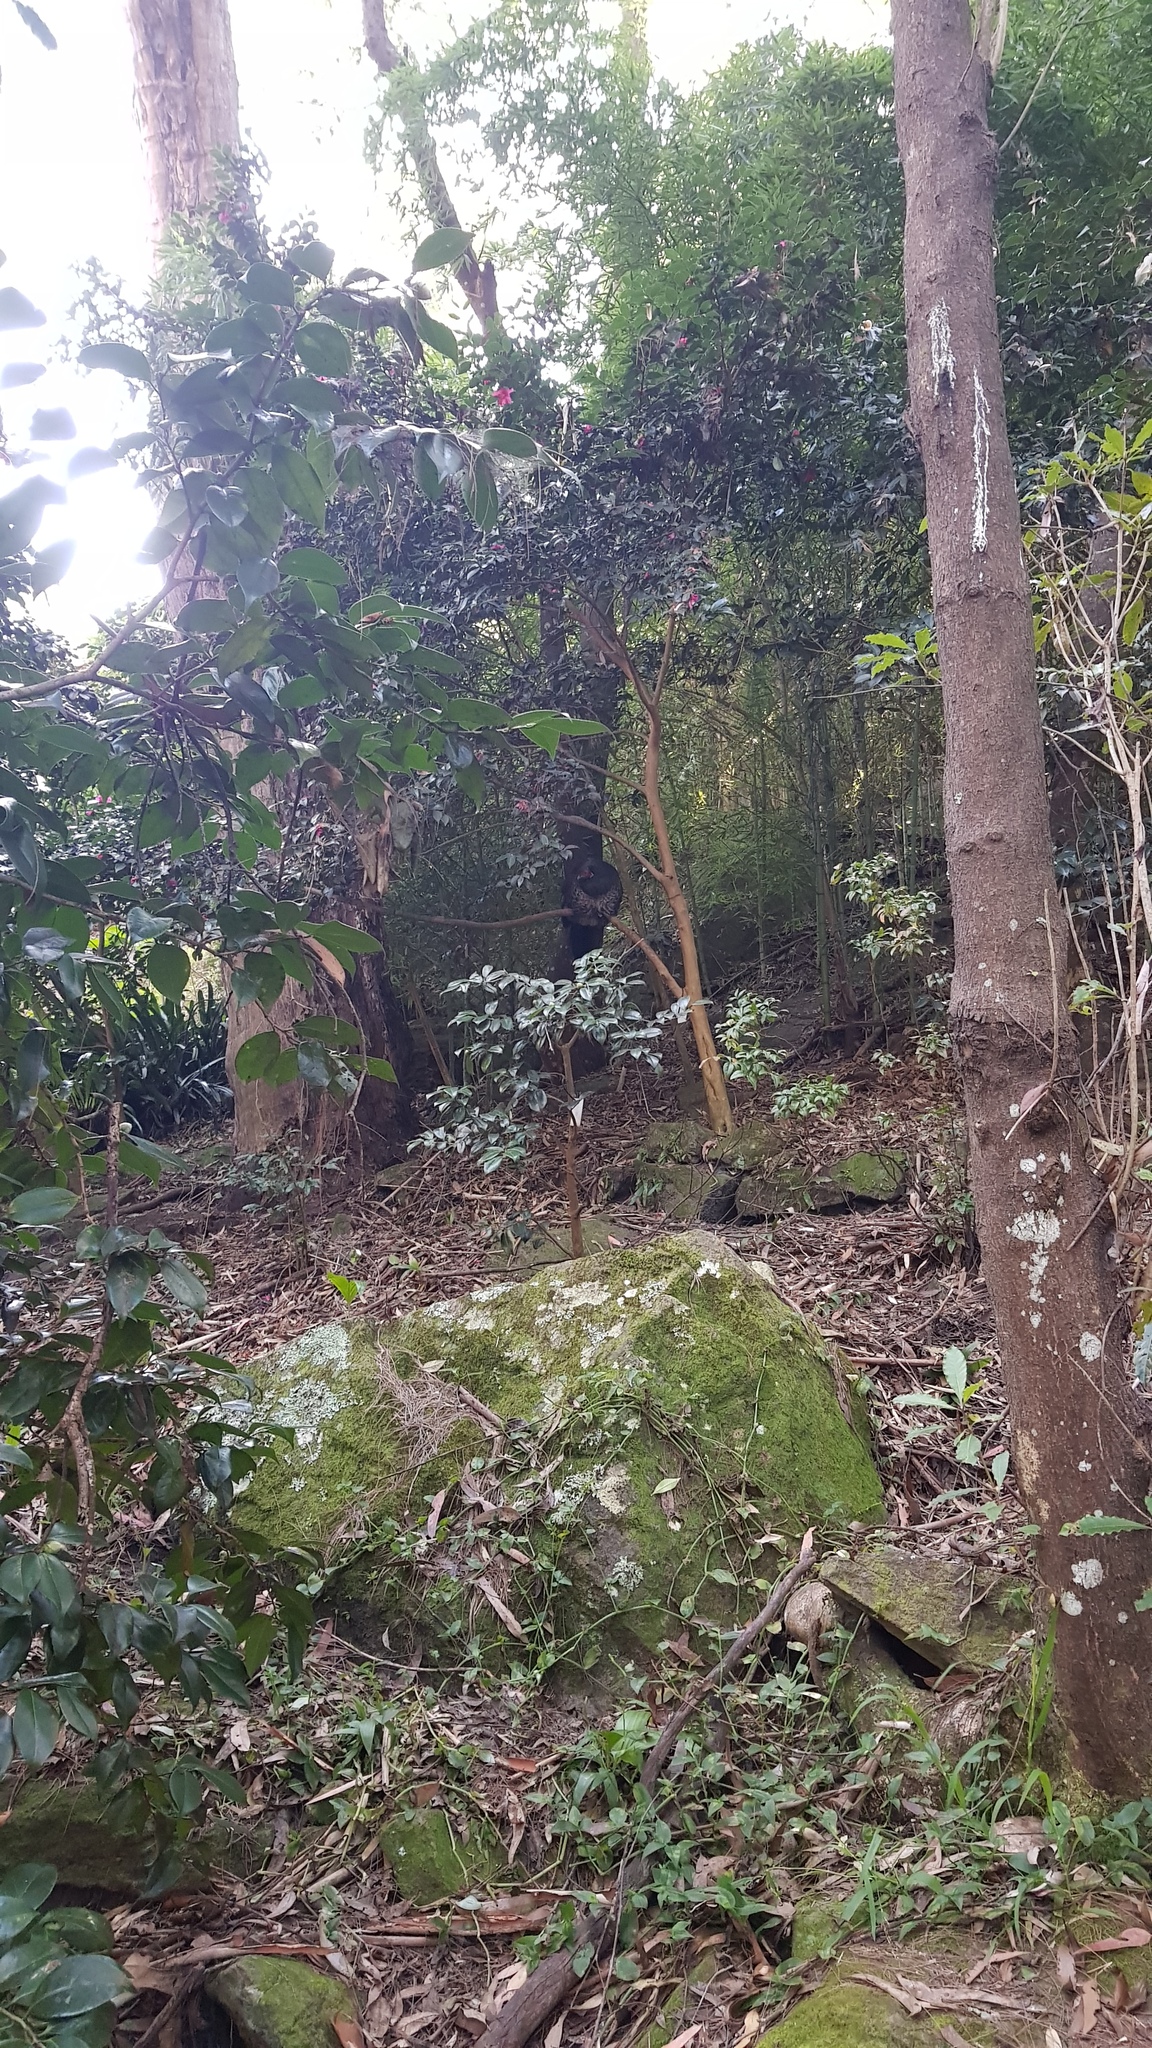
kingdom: Animalia
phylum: Chordata
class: Aves
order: Galliformes
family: Megapodiidae
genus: Alectura
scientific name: Alectura lathami
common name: Australian brushturkey
